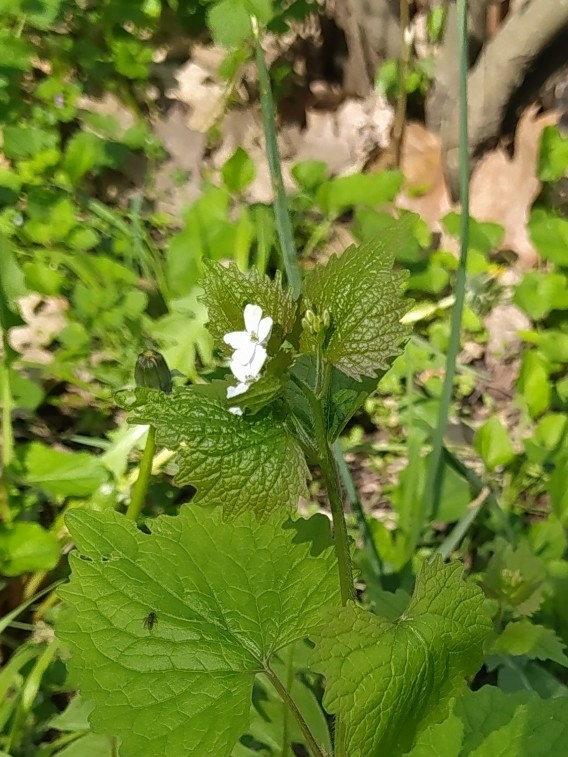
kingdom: Plantae
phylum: Tracheophyta
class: Magnoliopsida
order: Brassicales
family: Brassicaceae
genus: Alliaria
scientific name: Alliaria petiolata
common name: Garlic mustard
